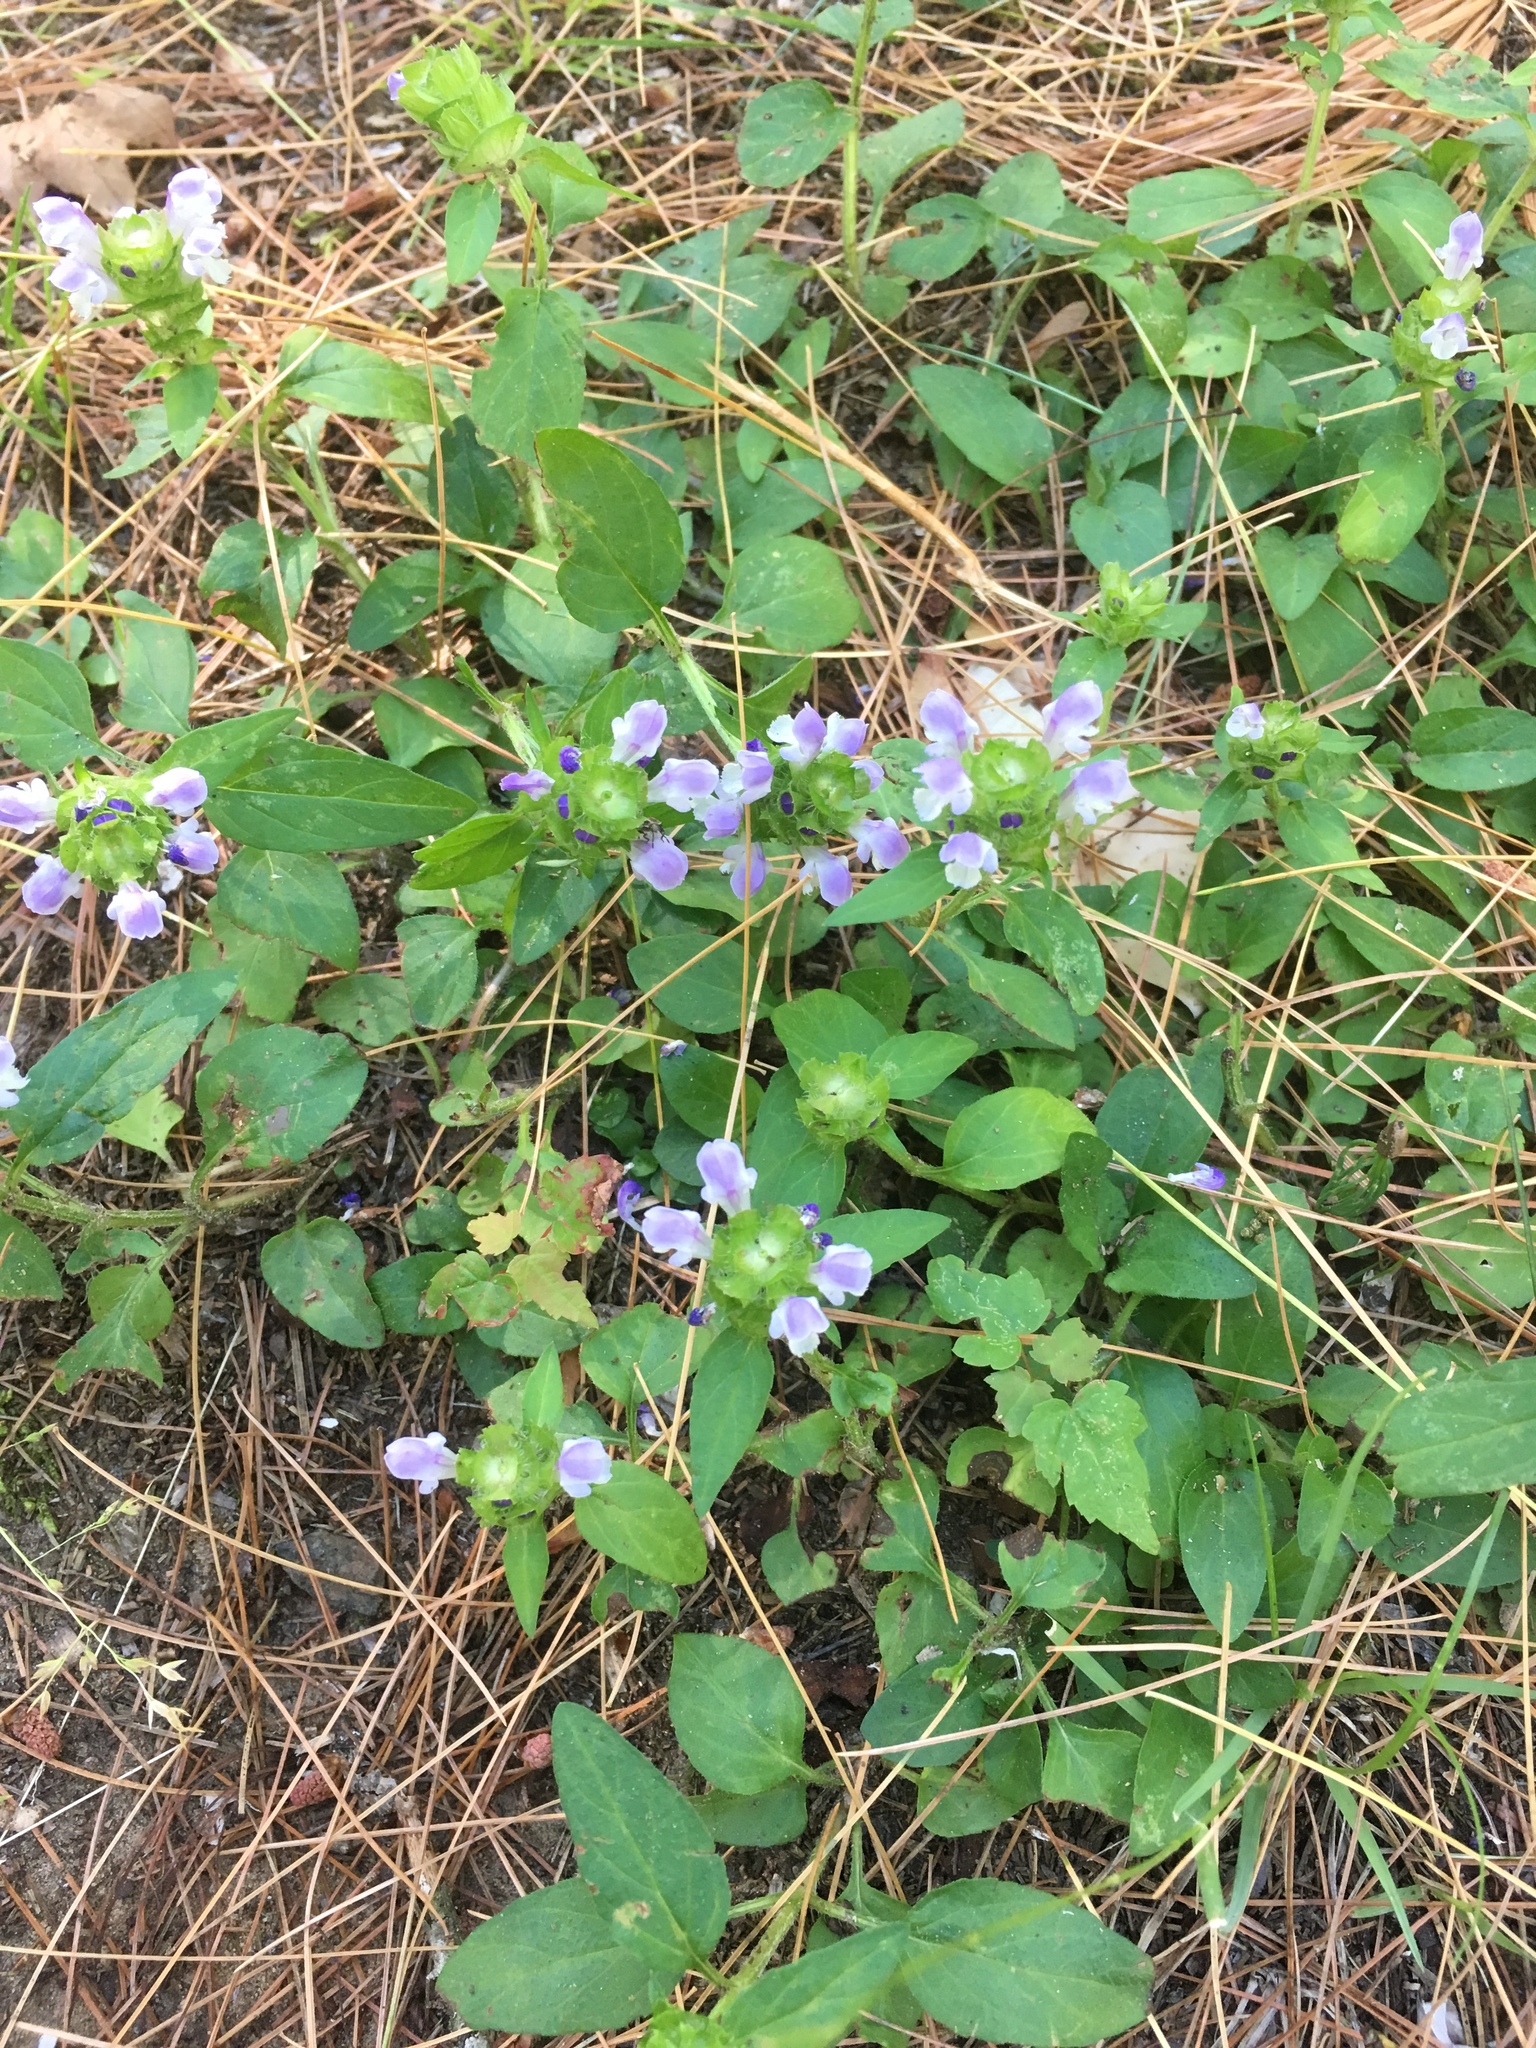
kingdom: Plantae
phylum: Tracheophyta
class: Magnoliopsida
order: Lamiales
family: Lamiaceae
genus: Prunella
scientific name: Prunella vulgaris
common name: Heal-all
